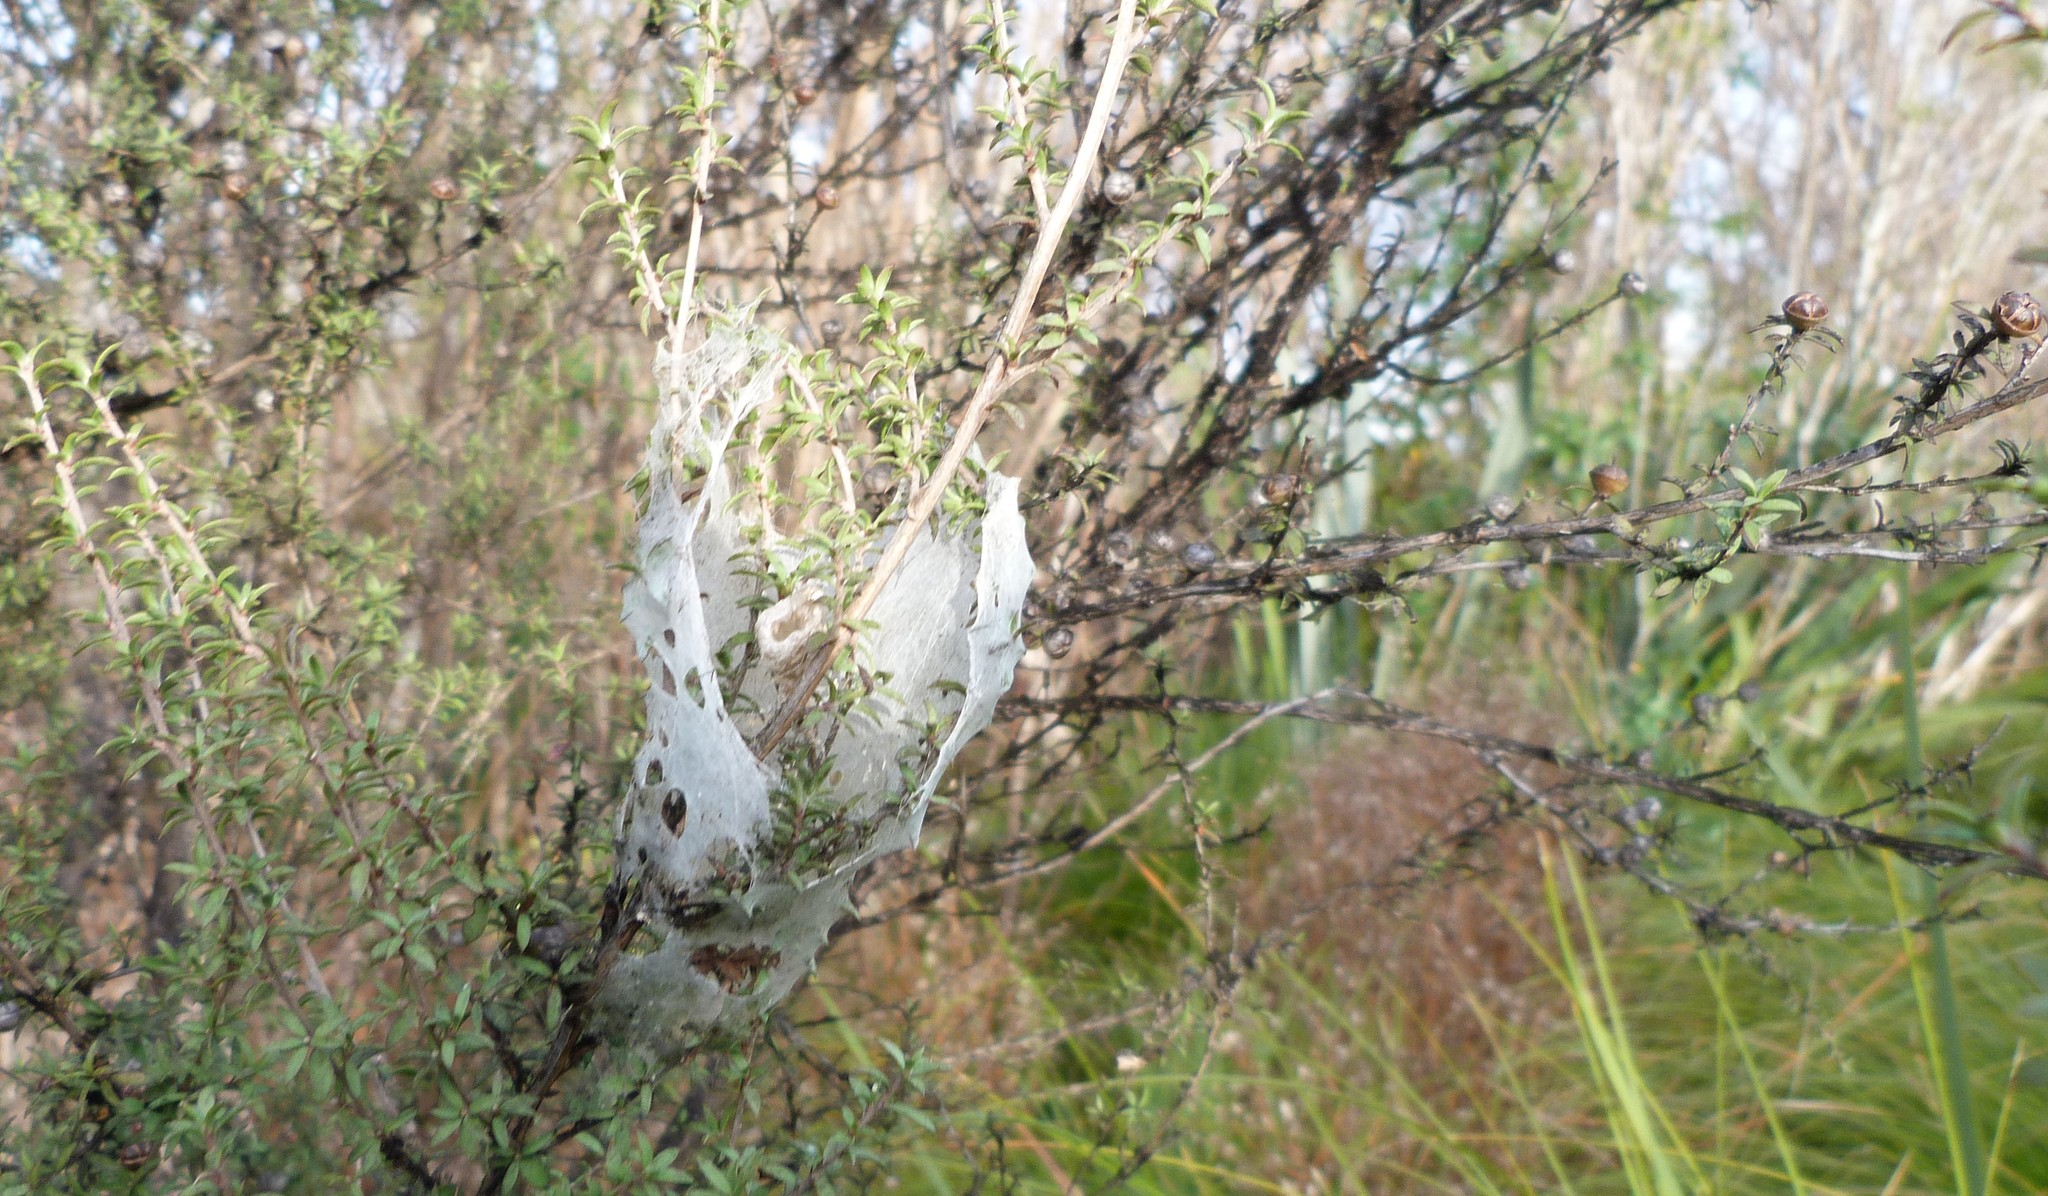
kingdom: Animalia
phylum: Arthropoda
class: Arachnida
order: Araneae
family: Pisauridae
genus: Dolomedes
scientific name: Dolomedes minor
